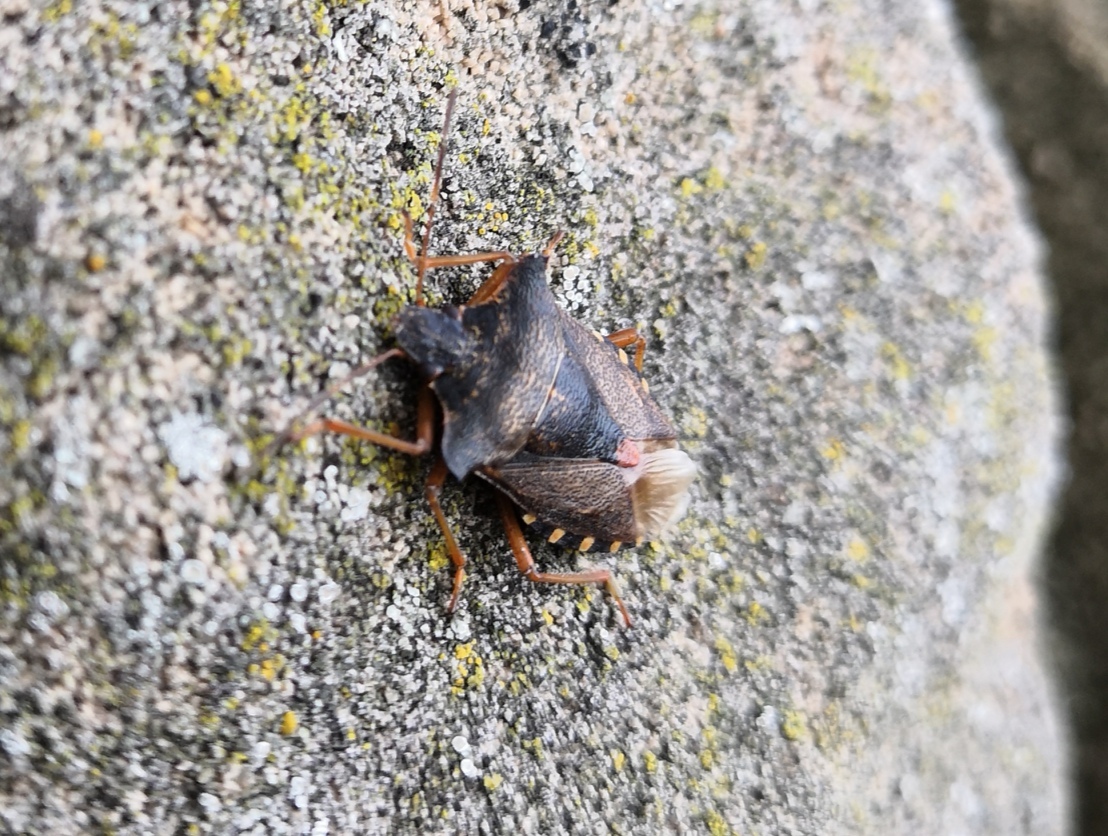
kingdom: Animalia
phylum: Arthropoda
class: Insecta
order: Hemiptera
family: Pentatomidae
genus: Pentatoma
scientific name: Pentatoma rufipes
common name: Forest bug
